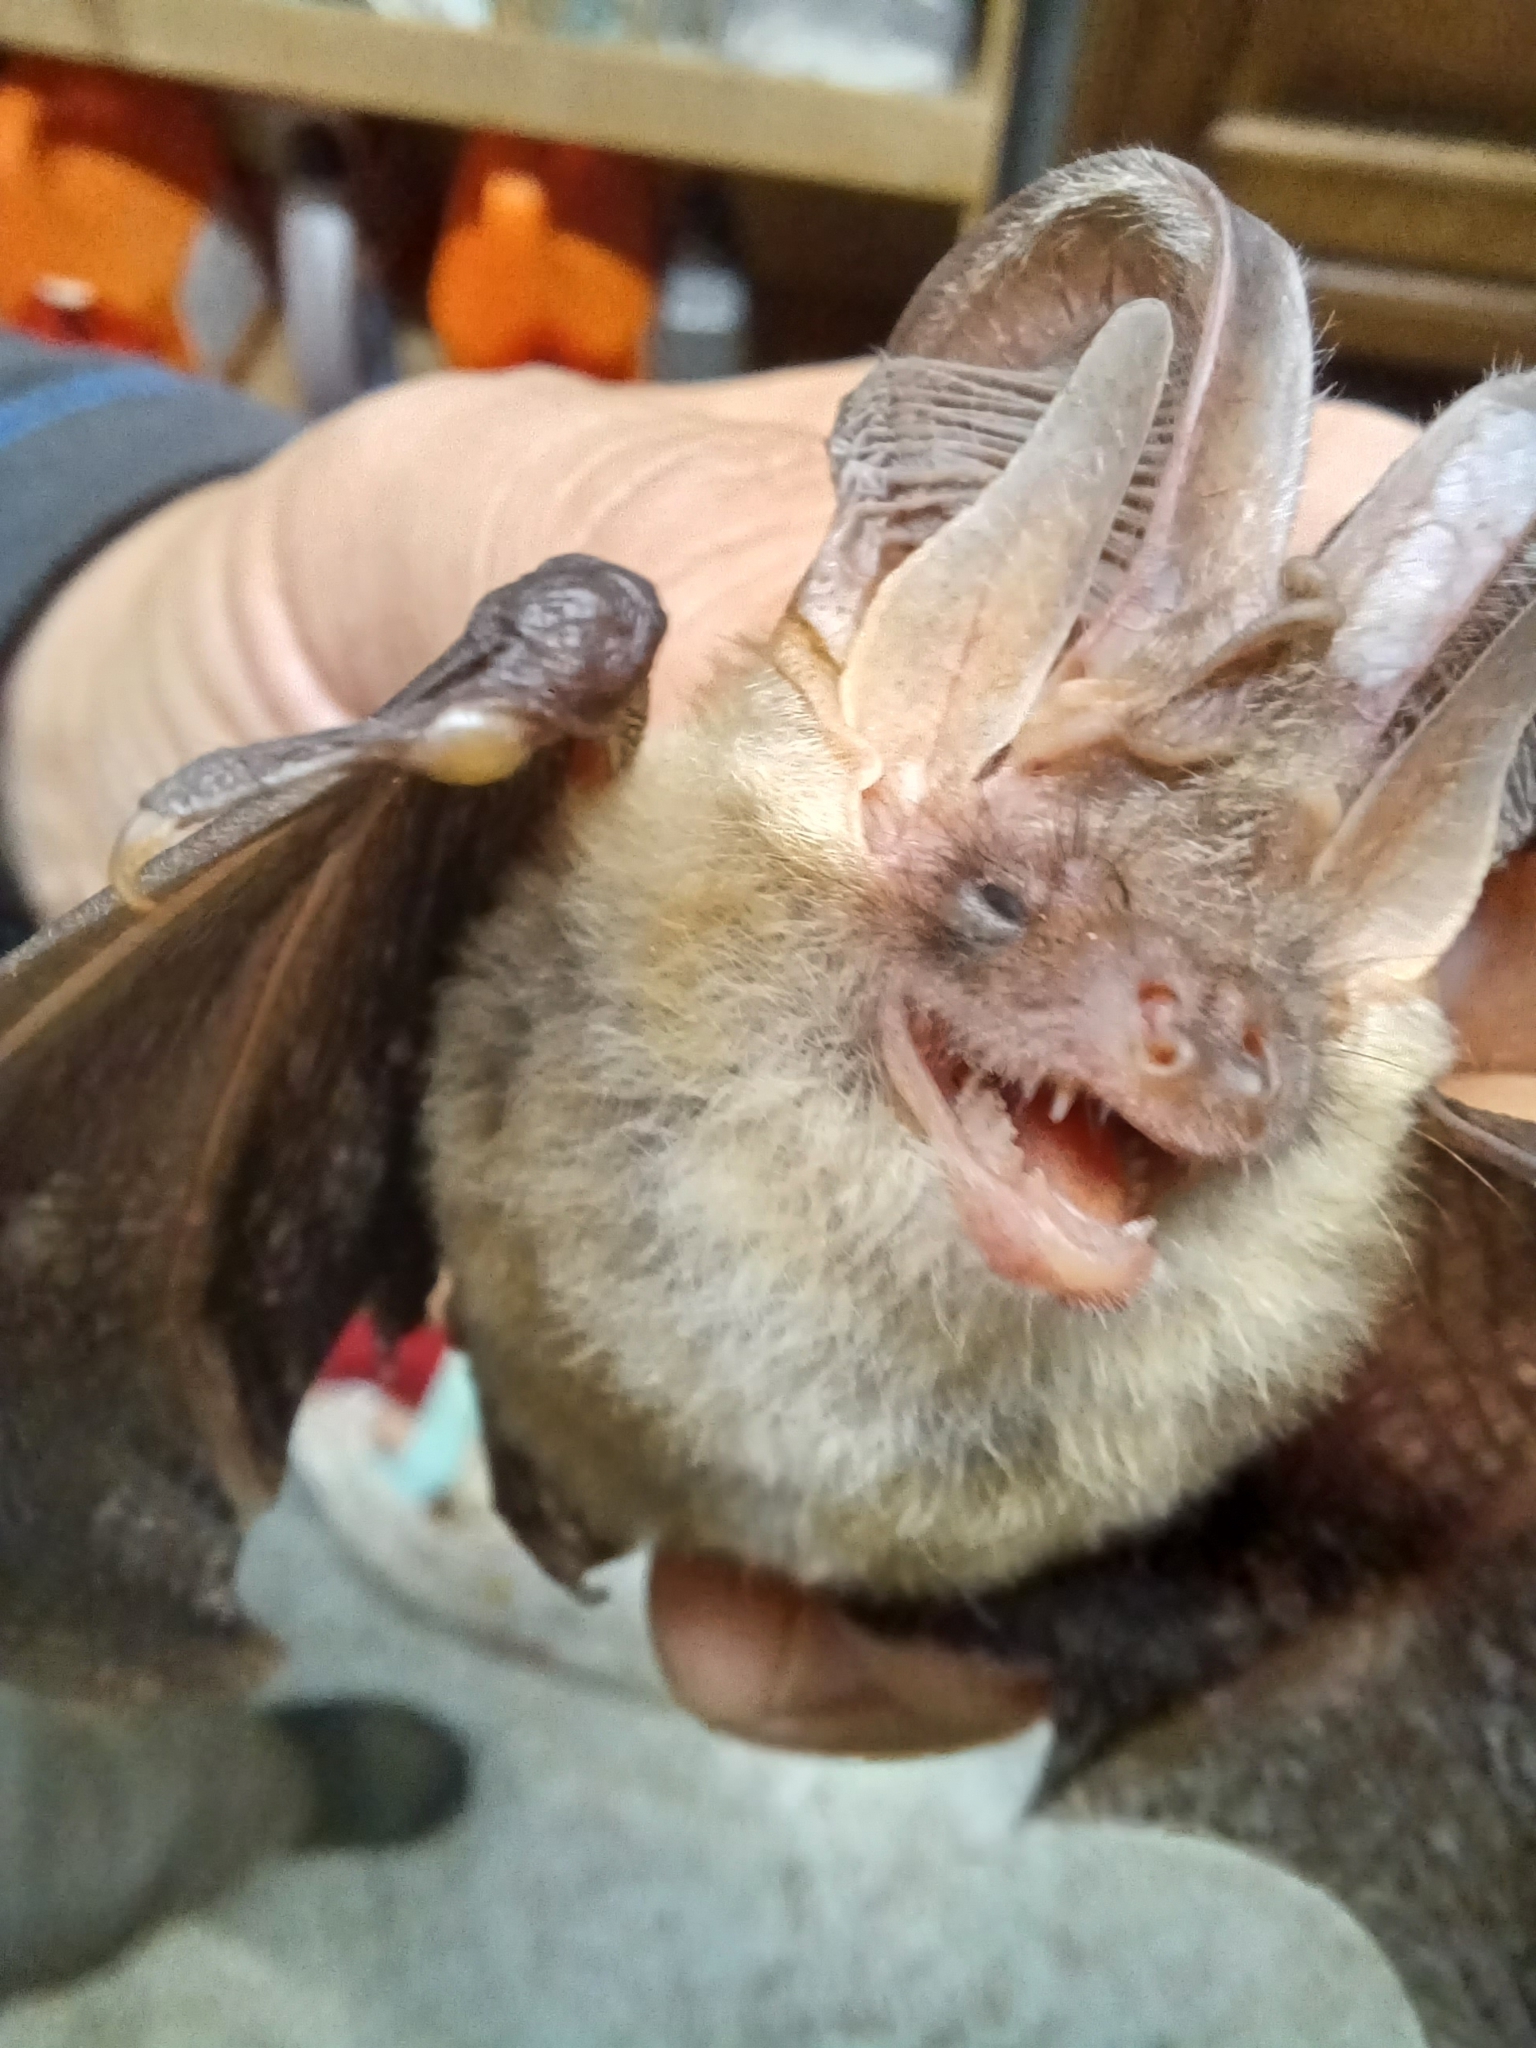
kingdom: Animalia
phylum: Chordata
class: Mammalia
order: Chiroptera
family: Vespertilionidae
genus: Plecotus
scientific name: Plecotus auritus
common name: Brown long-eared bat
